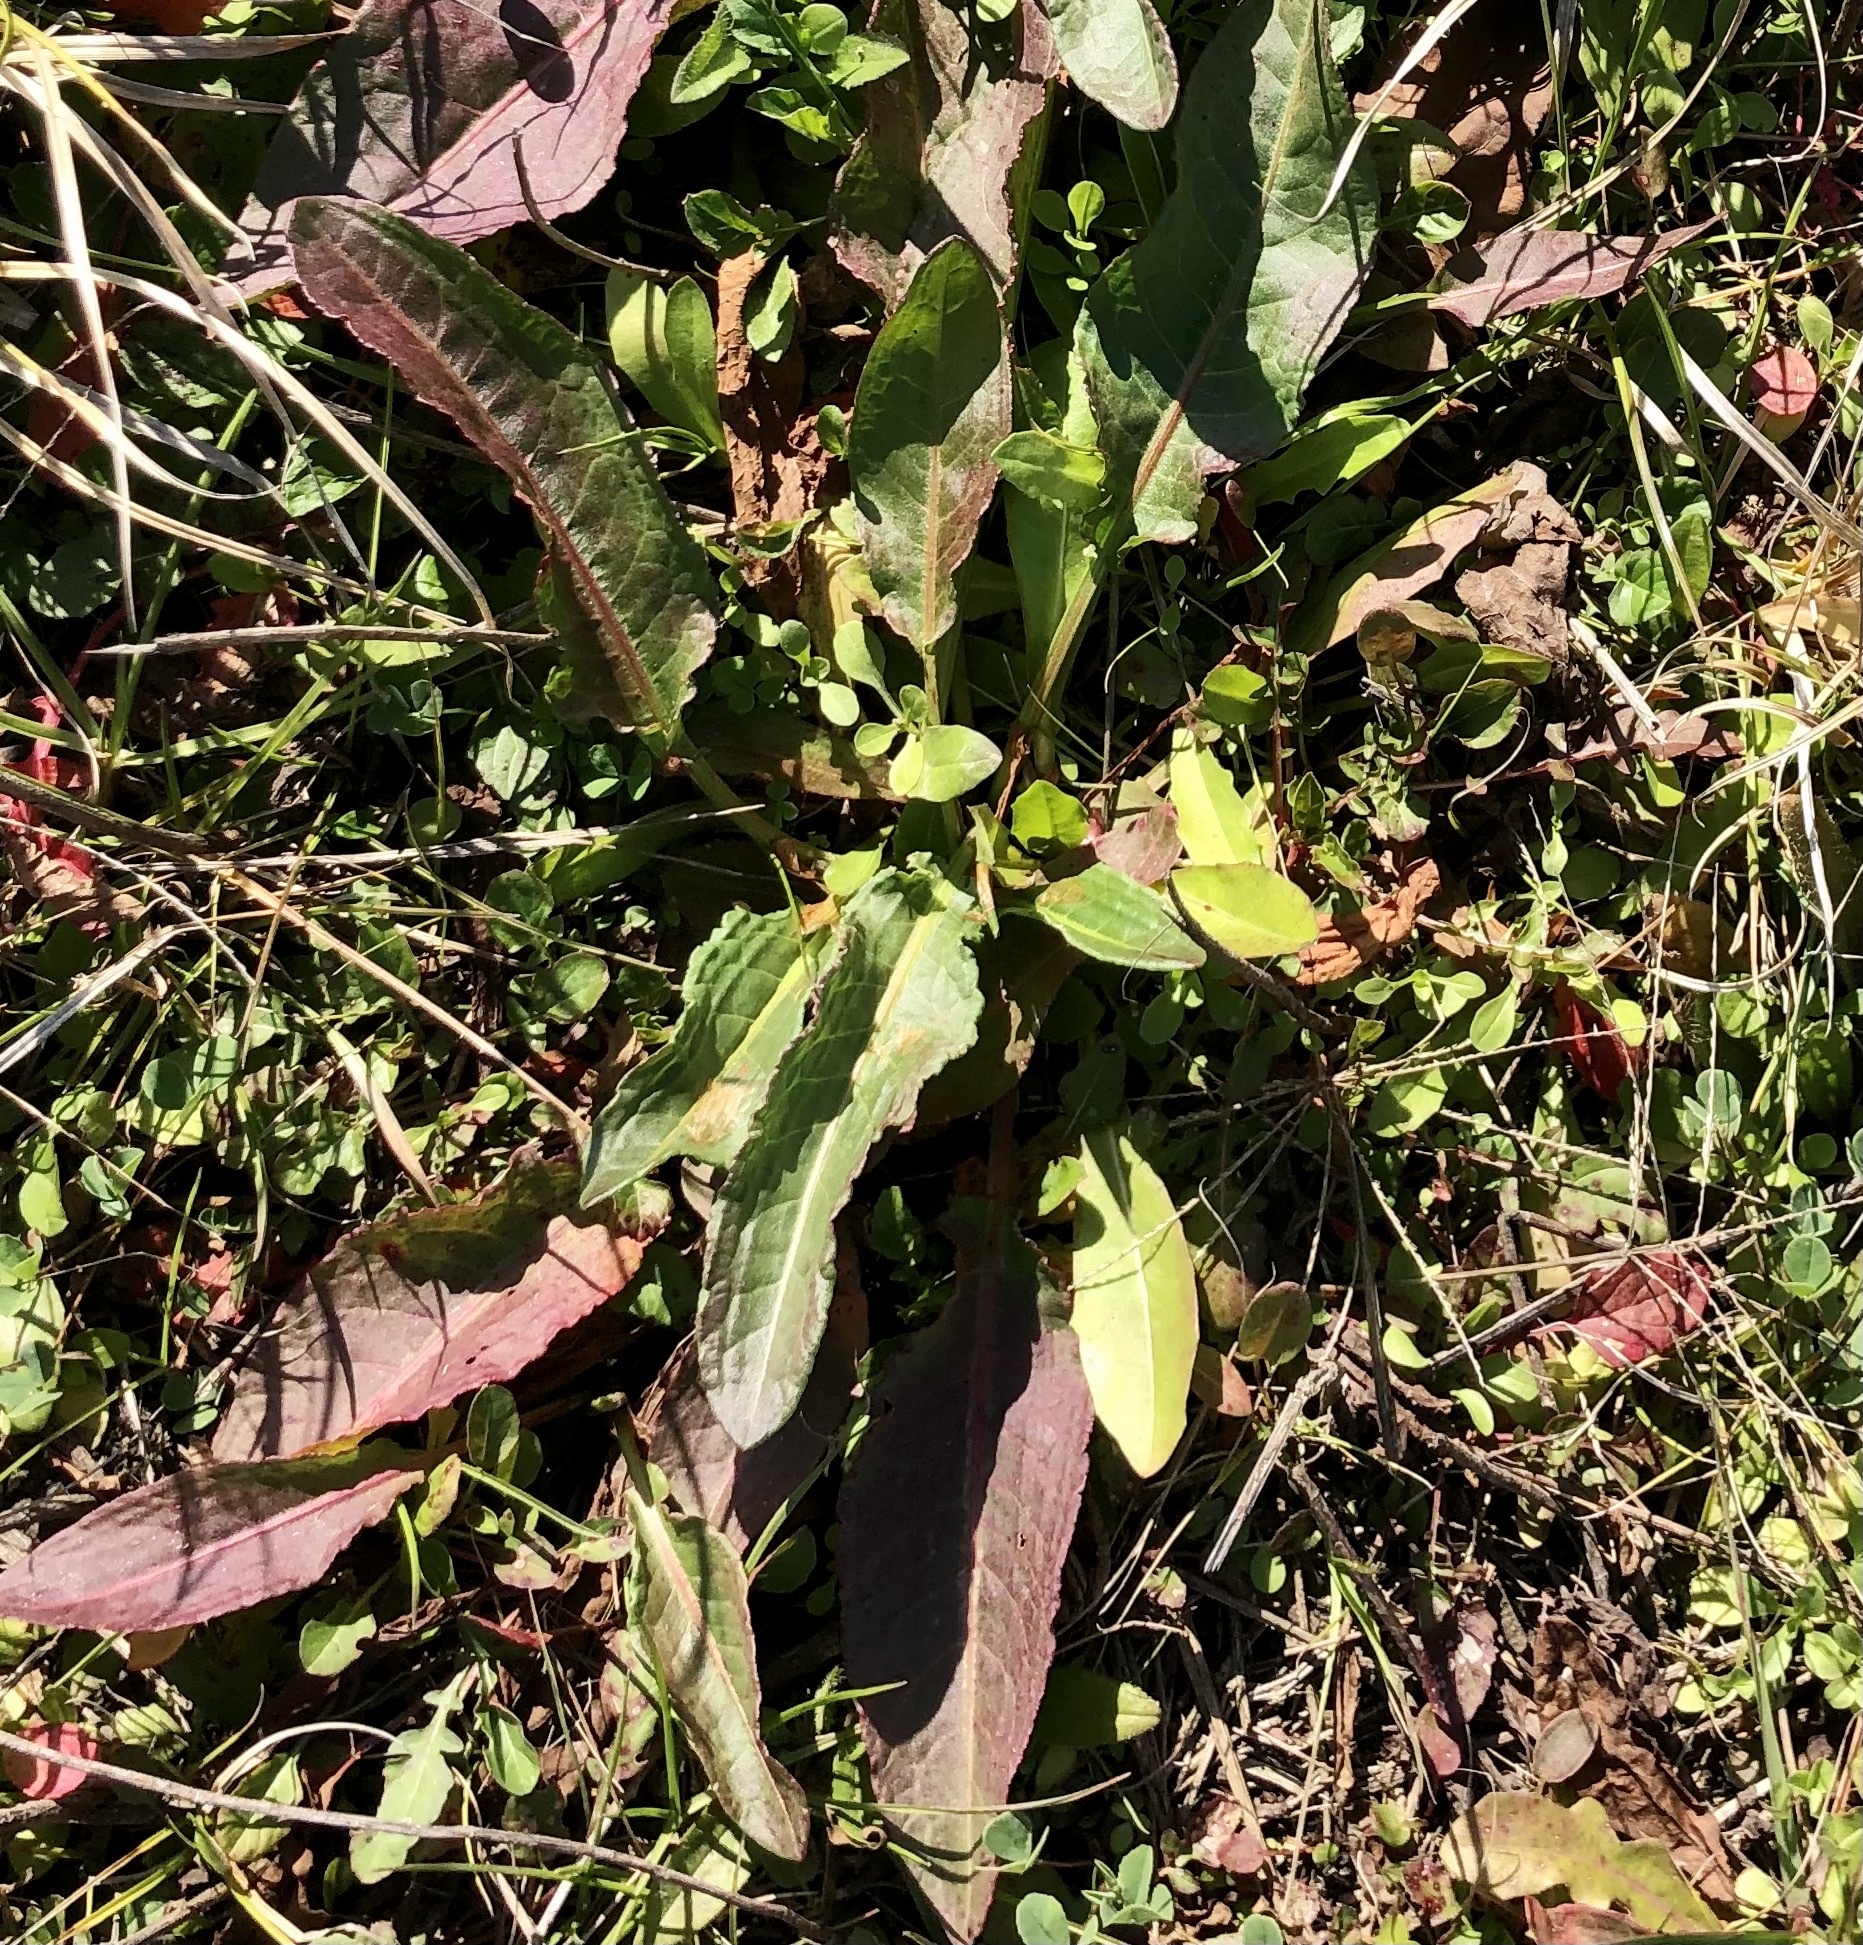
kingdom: Plantae
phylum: Tracheophyta
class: Magnoliopsida
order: Caryophyllales
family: Polygonaceae
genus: Rumex
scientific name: Rumex crispus
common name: Curled dock
